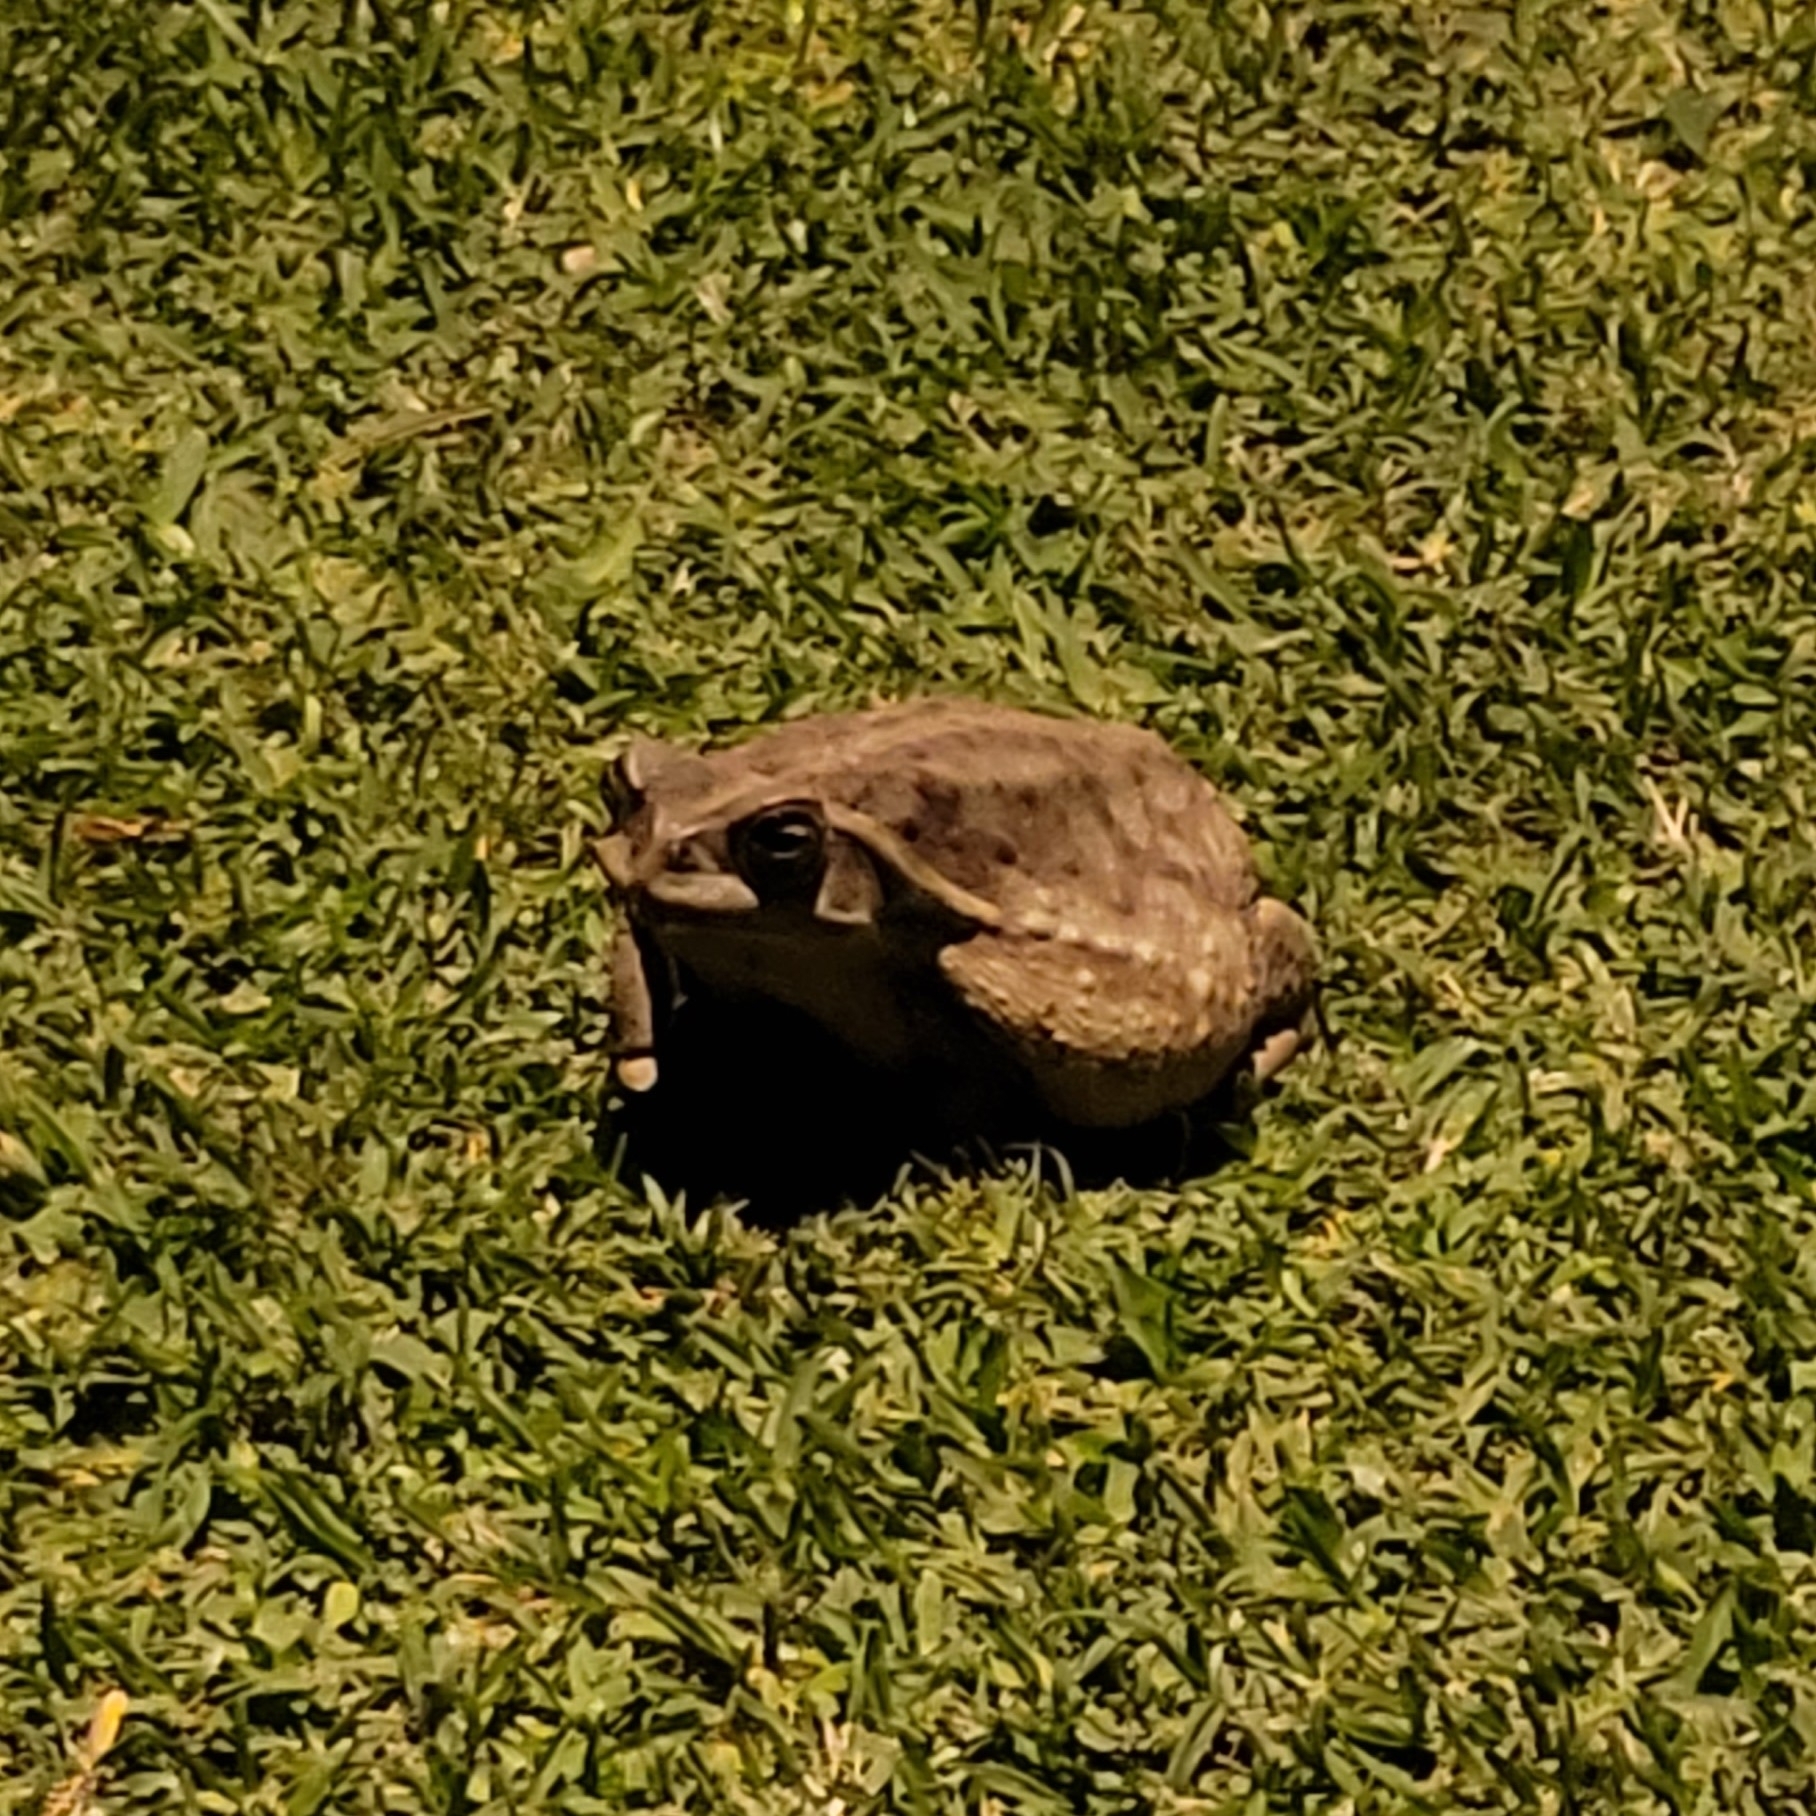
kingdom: Animalia
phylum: Chordata
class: Amphibia
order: Anura
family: Bufonidae
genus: Rhinella
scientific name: Rhinella arenarum
